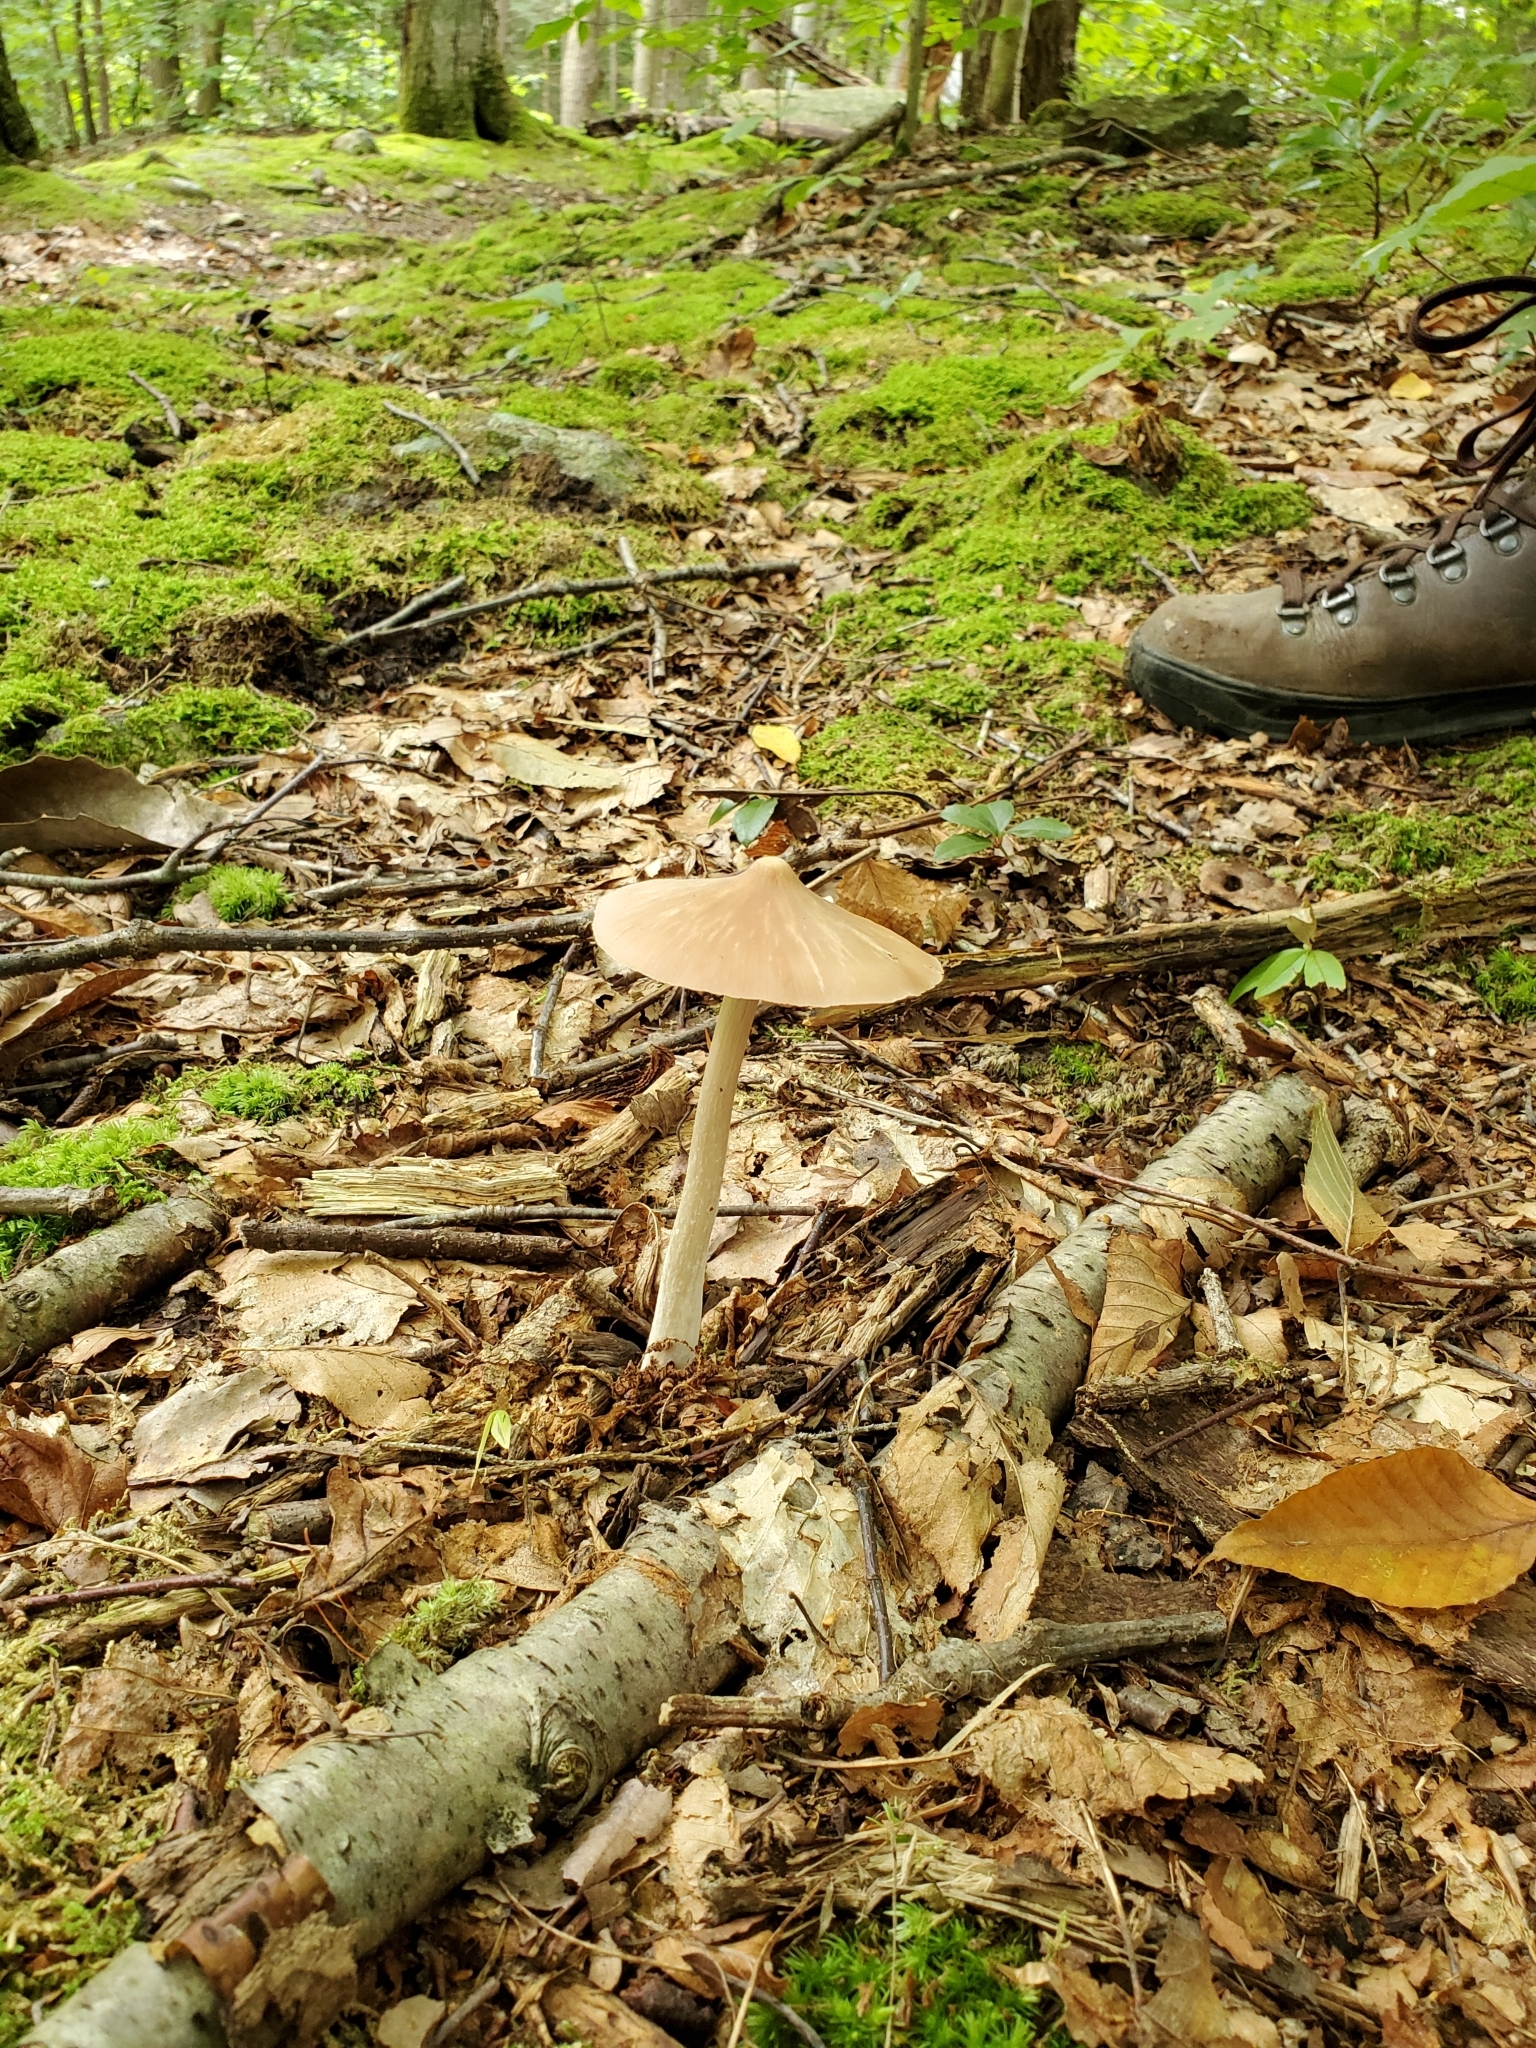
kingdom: Fungi
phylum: Basidiomycota
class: Agaricomycetes
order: Agaricales
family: Entolomataceae
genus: Entoloma
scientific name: Entoloma strictius
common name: Straight-stalked entoloma
